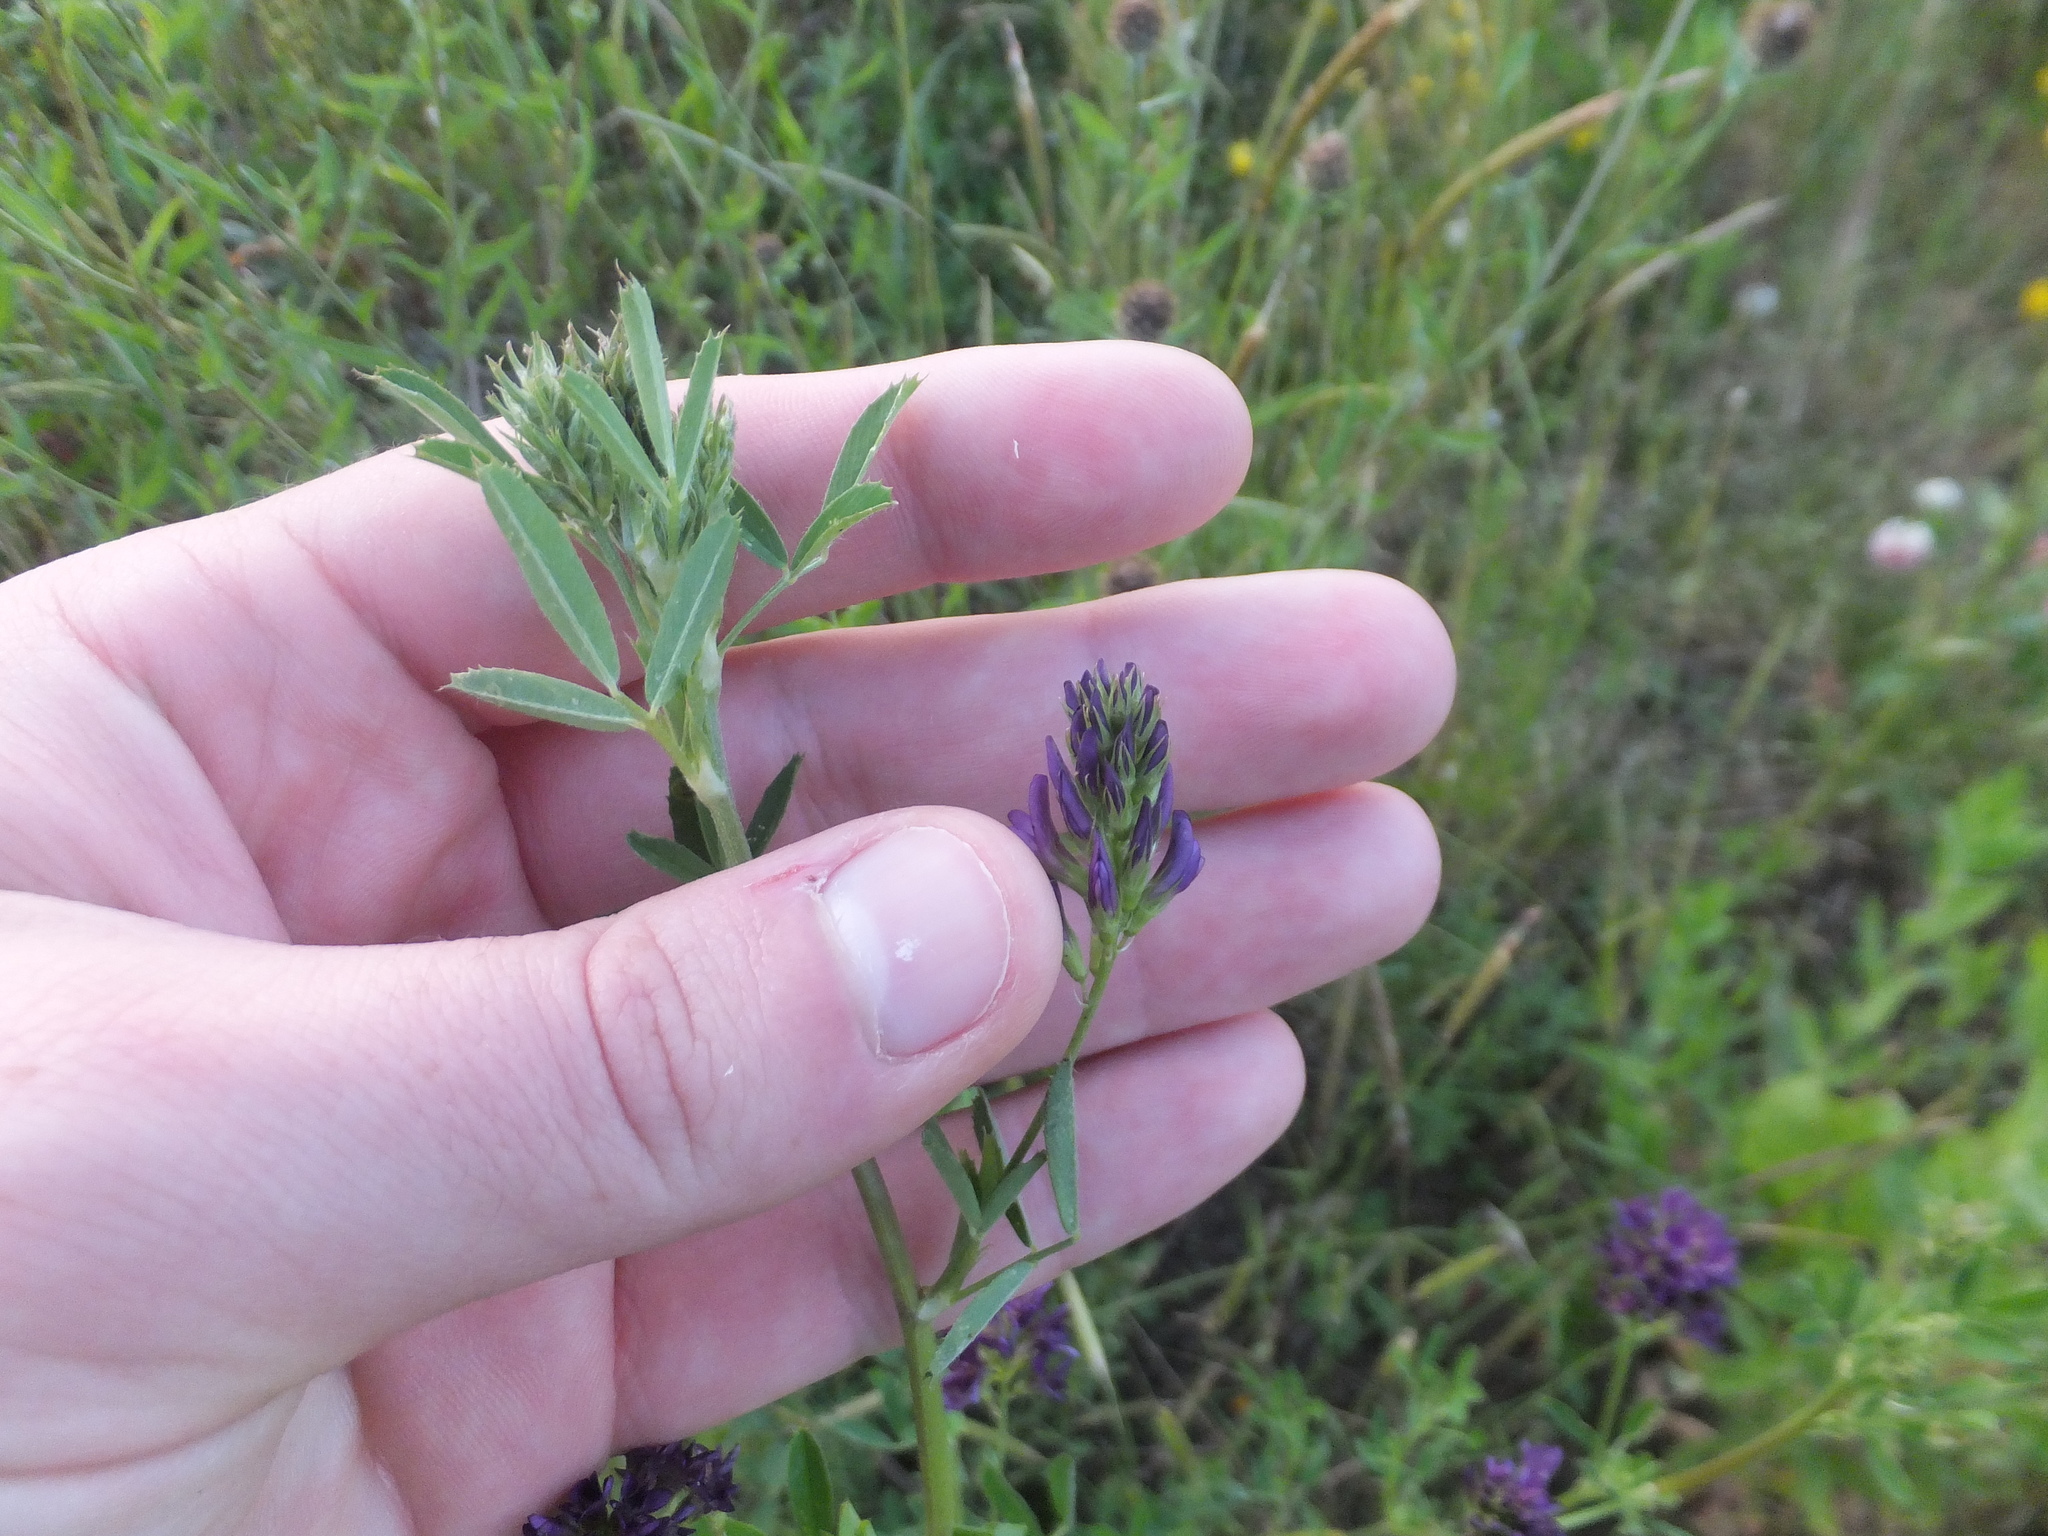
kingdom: Plantae
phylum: Tracheophyta
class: Magnoliopsida
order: Fabales
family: Fabaceae
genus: Medicago
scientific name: Medicago sativa
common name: Alfalfa
